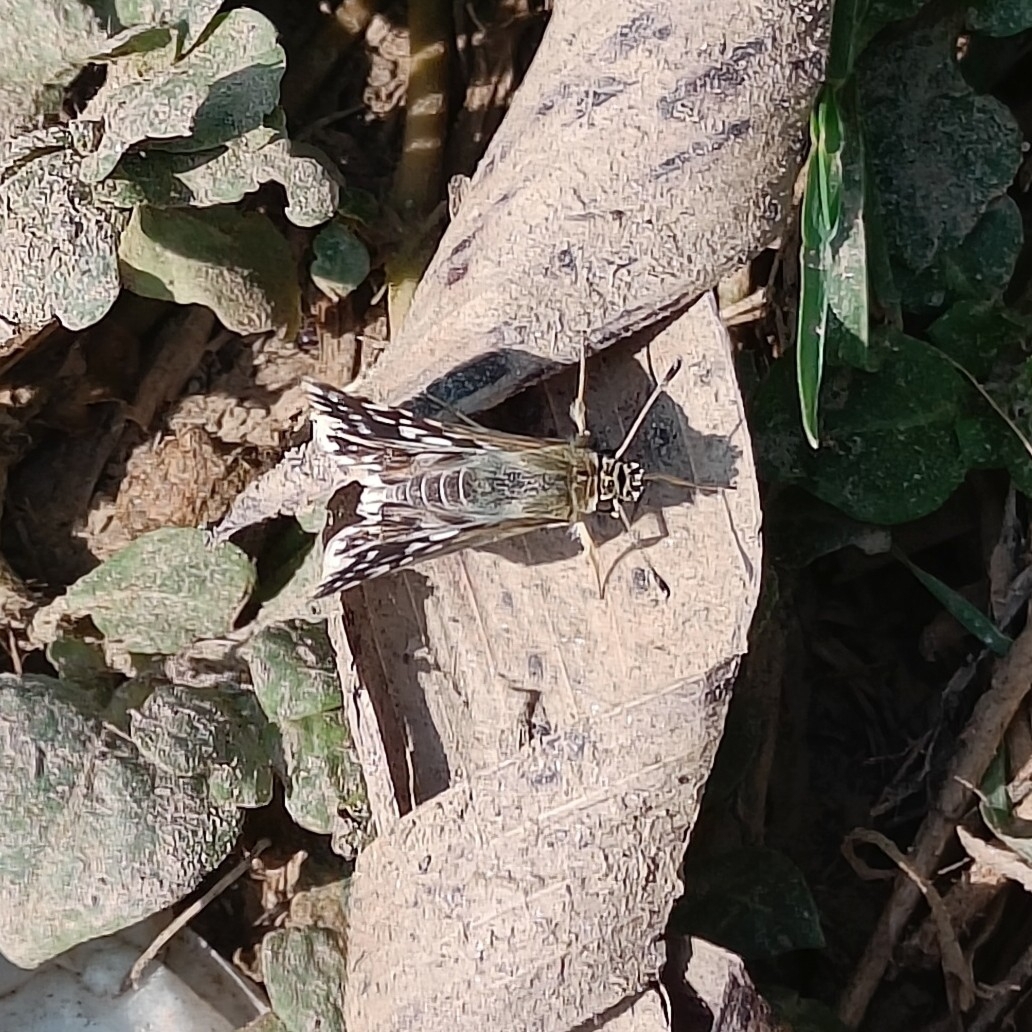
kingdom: Animalia
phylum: Arthropoda
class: Insecta
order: Lepidoptera
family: Hesperiidae
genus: Spialia
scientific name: Spialia galba
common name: Indian skipper
